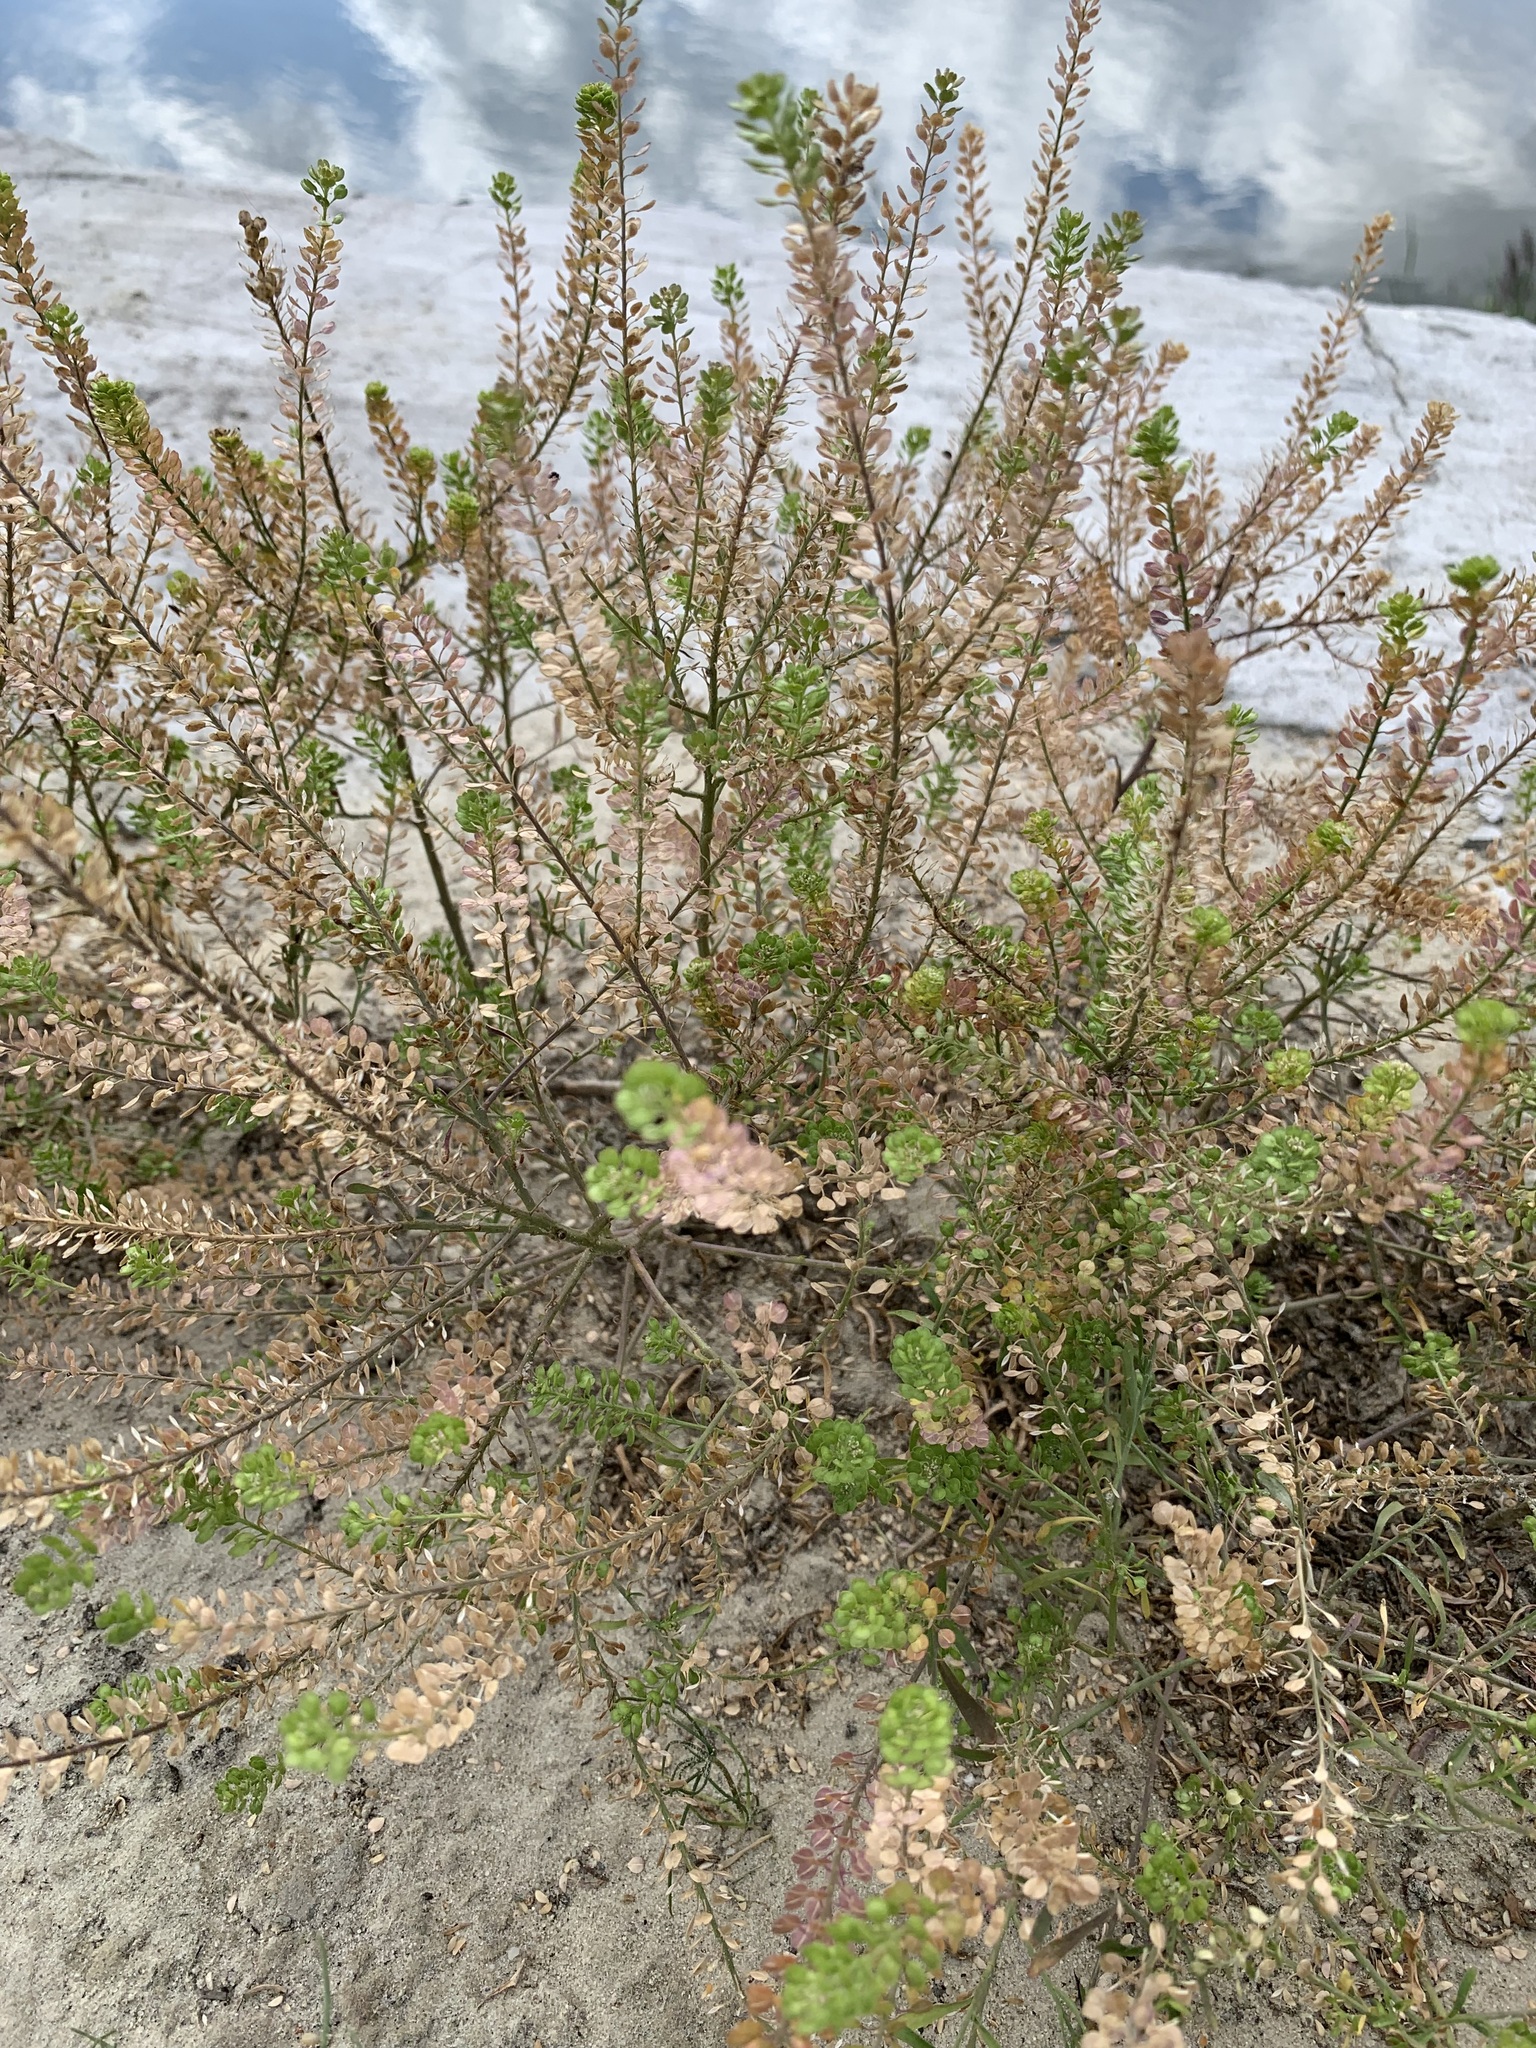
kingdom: Plantae
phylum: Tracheophyta
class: Magnoliopsida
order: Brassicales
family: Brassicaceae
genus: Lepidium
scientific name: Lepidium densiflorum
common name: Miner's pepperwort
